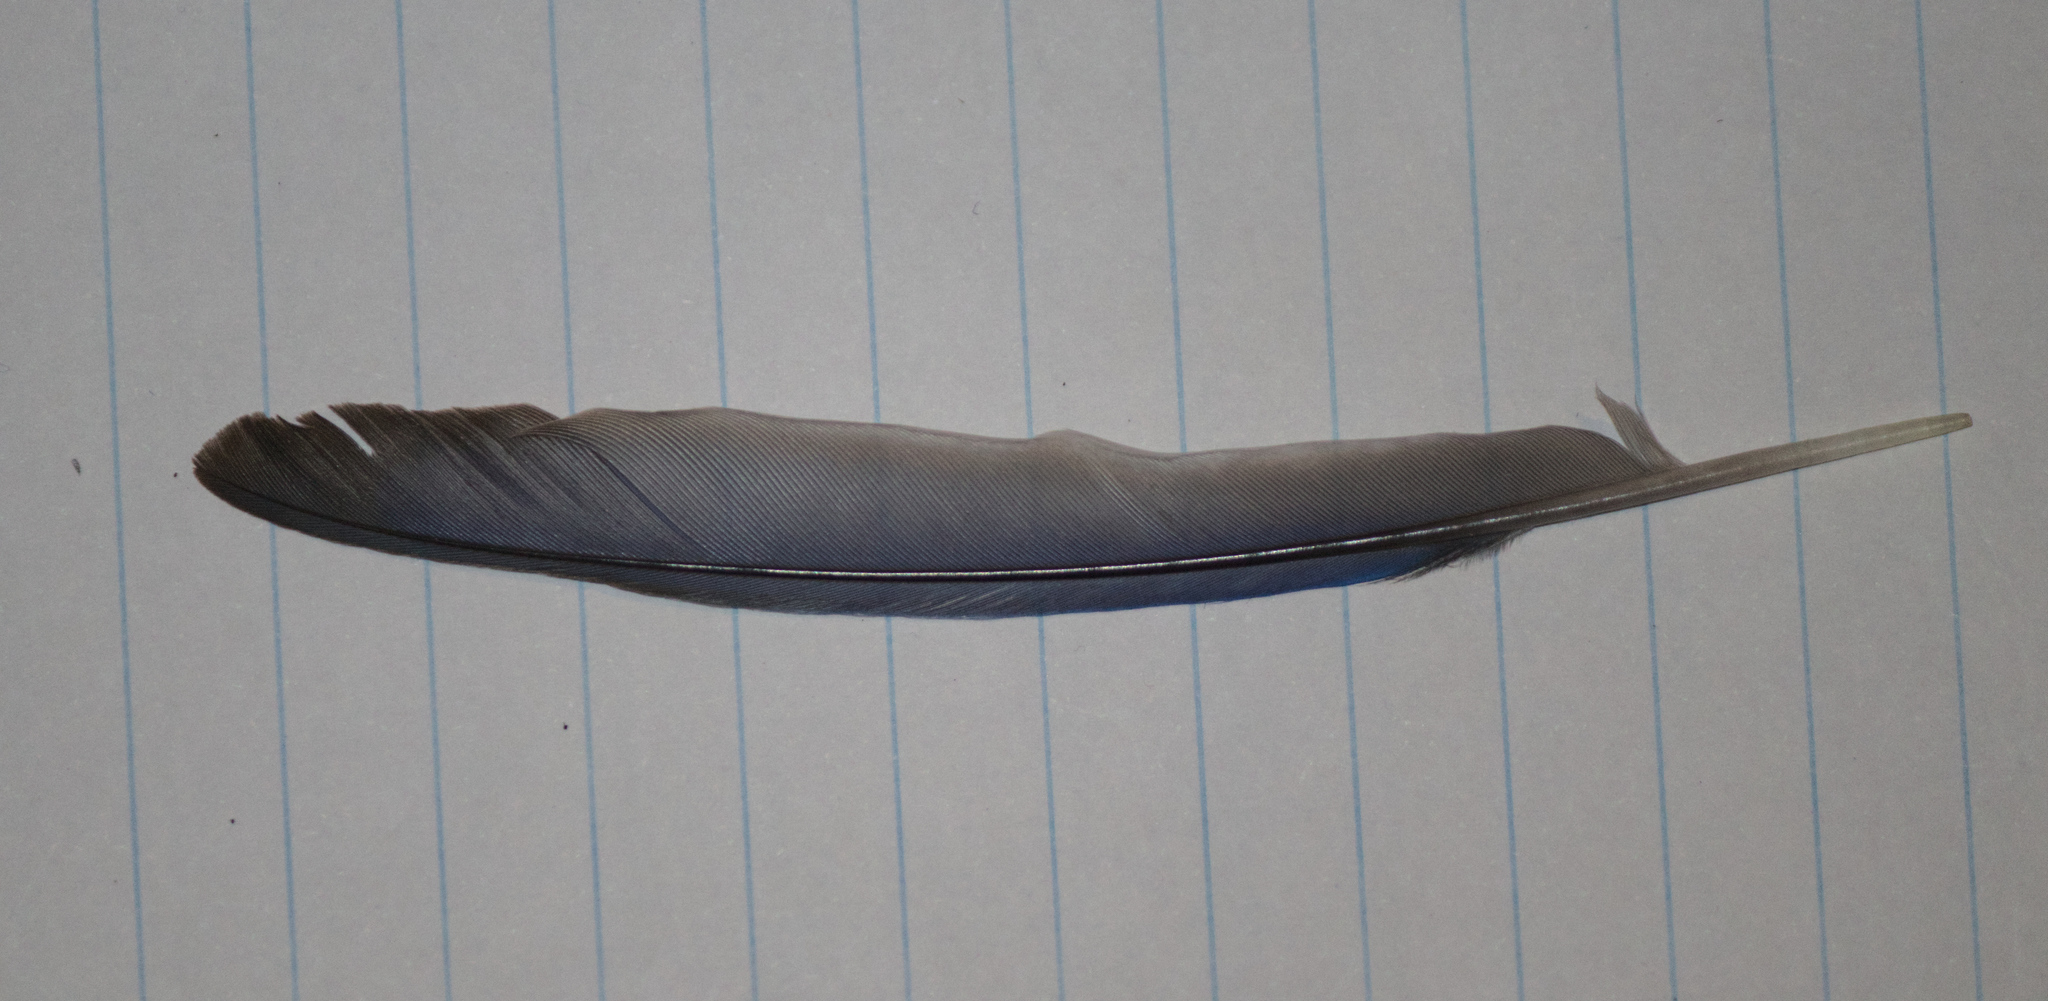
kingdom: Animalia
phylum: Chordata
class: Aves
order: Passeriformes
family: Turdidae
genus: Sialia
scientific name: Sialia sialis
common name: Eastern bluebird
